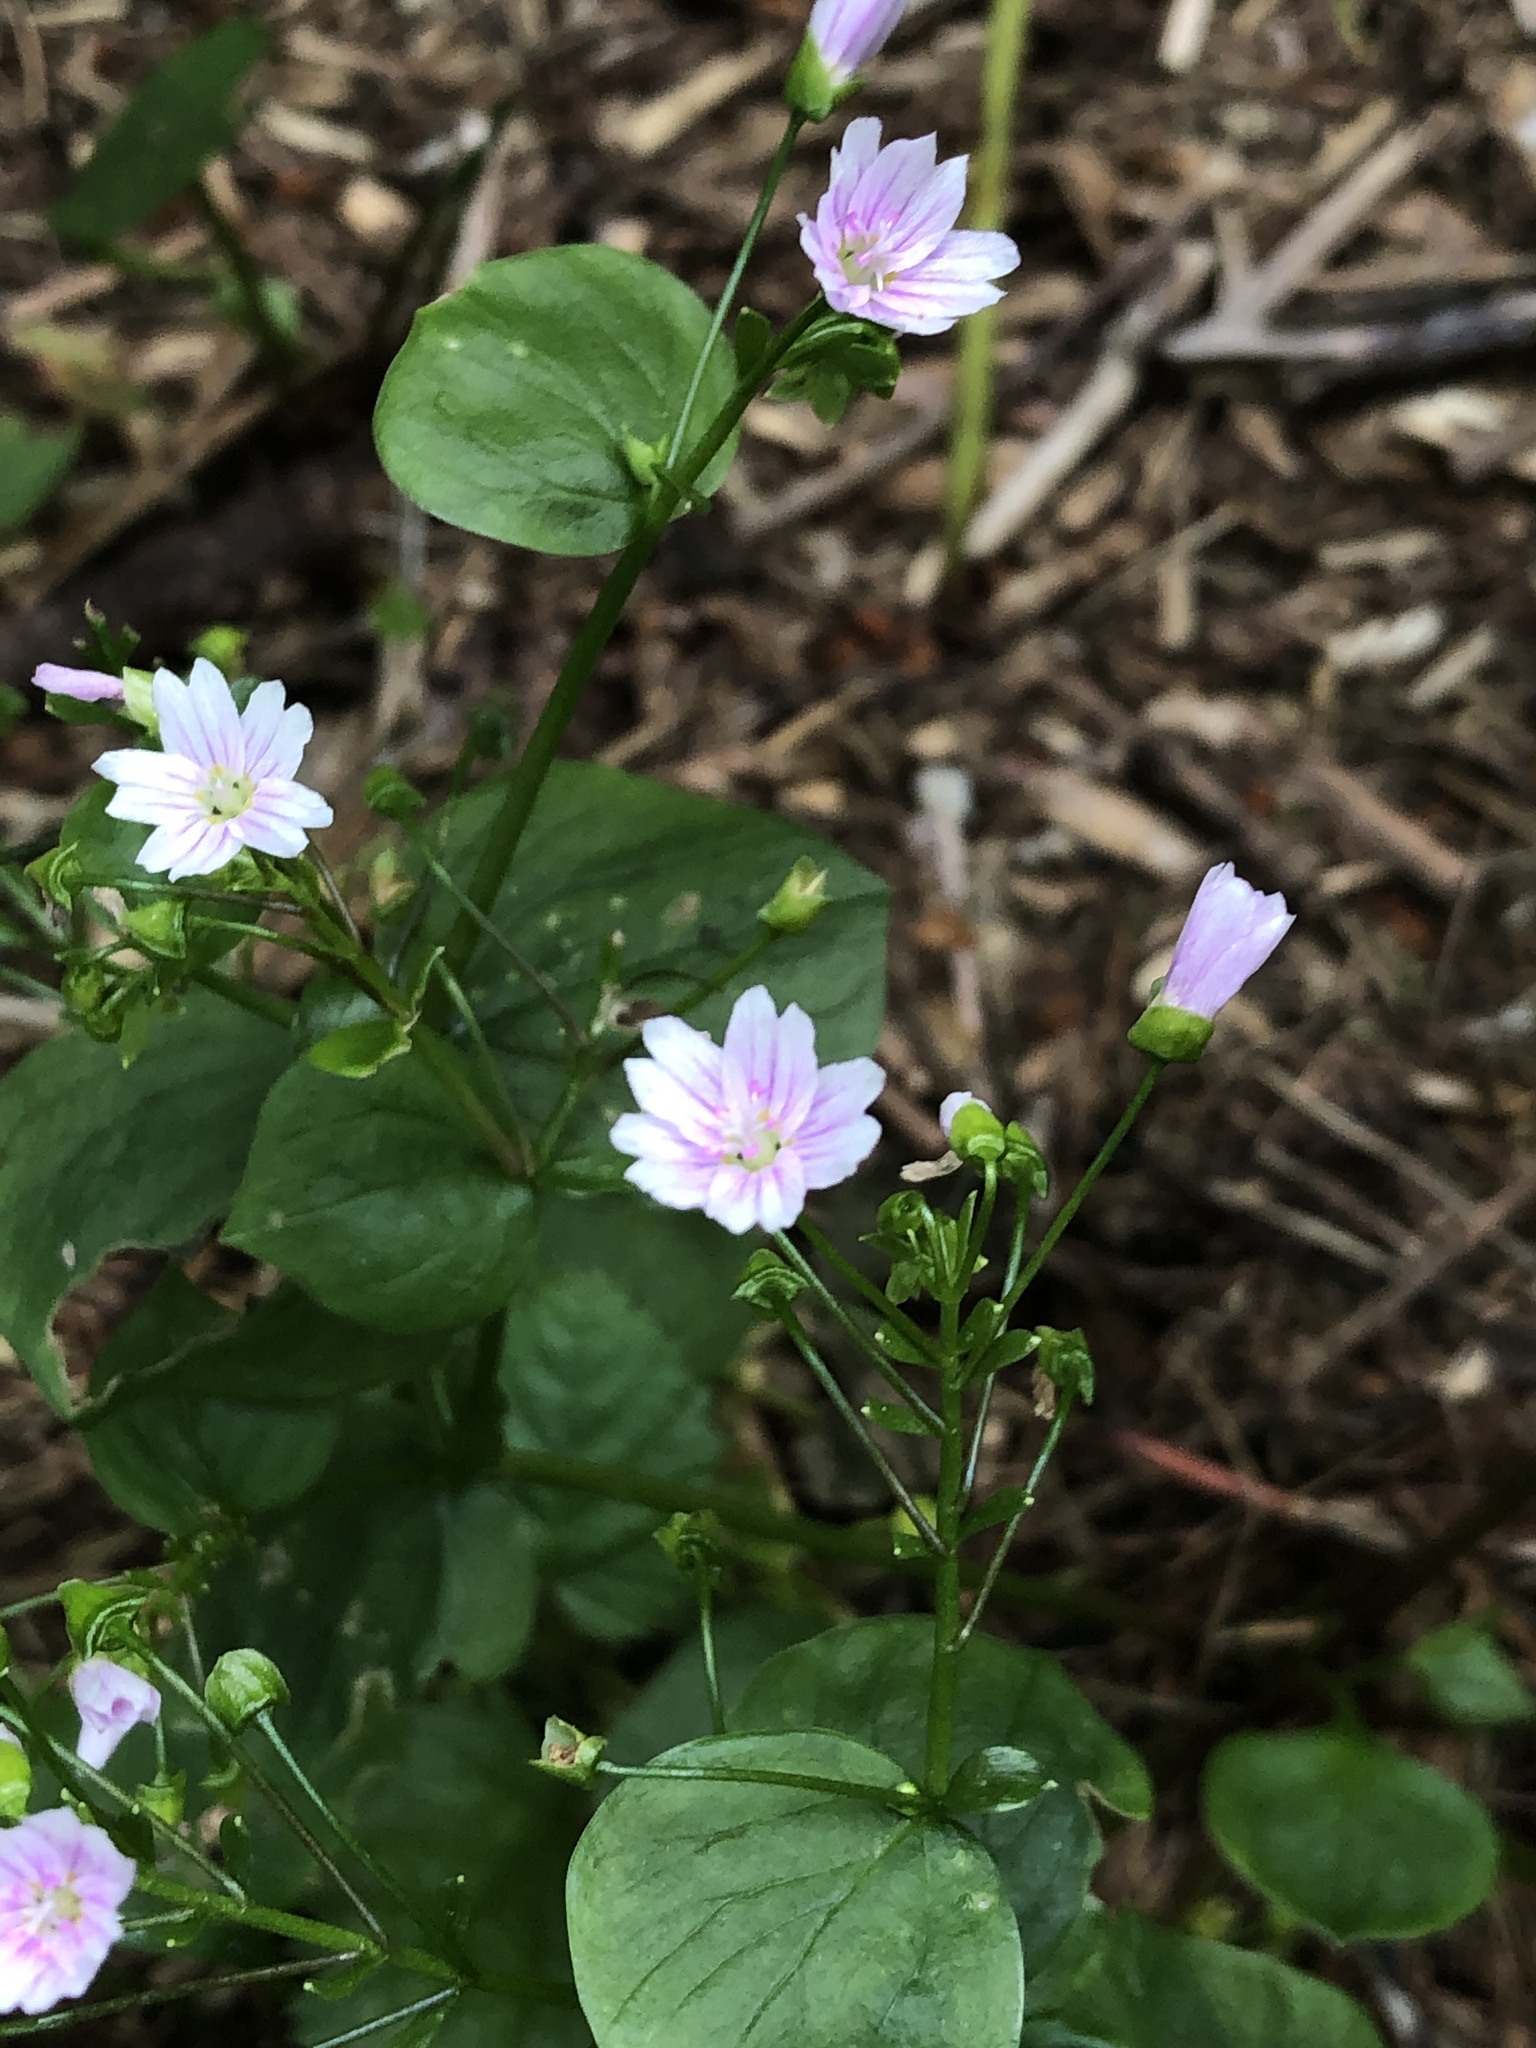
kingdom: Plantae
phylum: Tracheophyta
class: Magnoliopsida
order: Caryophyllales
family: Montiaceae
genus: Claytonia
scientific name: Claytonia sibirica
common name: Pink purslane
